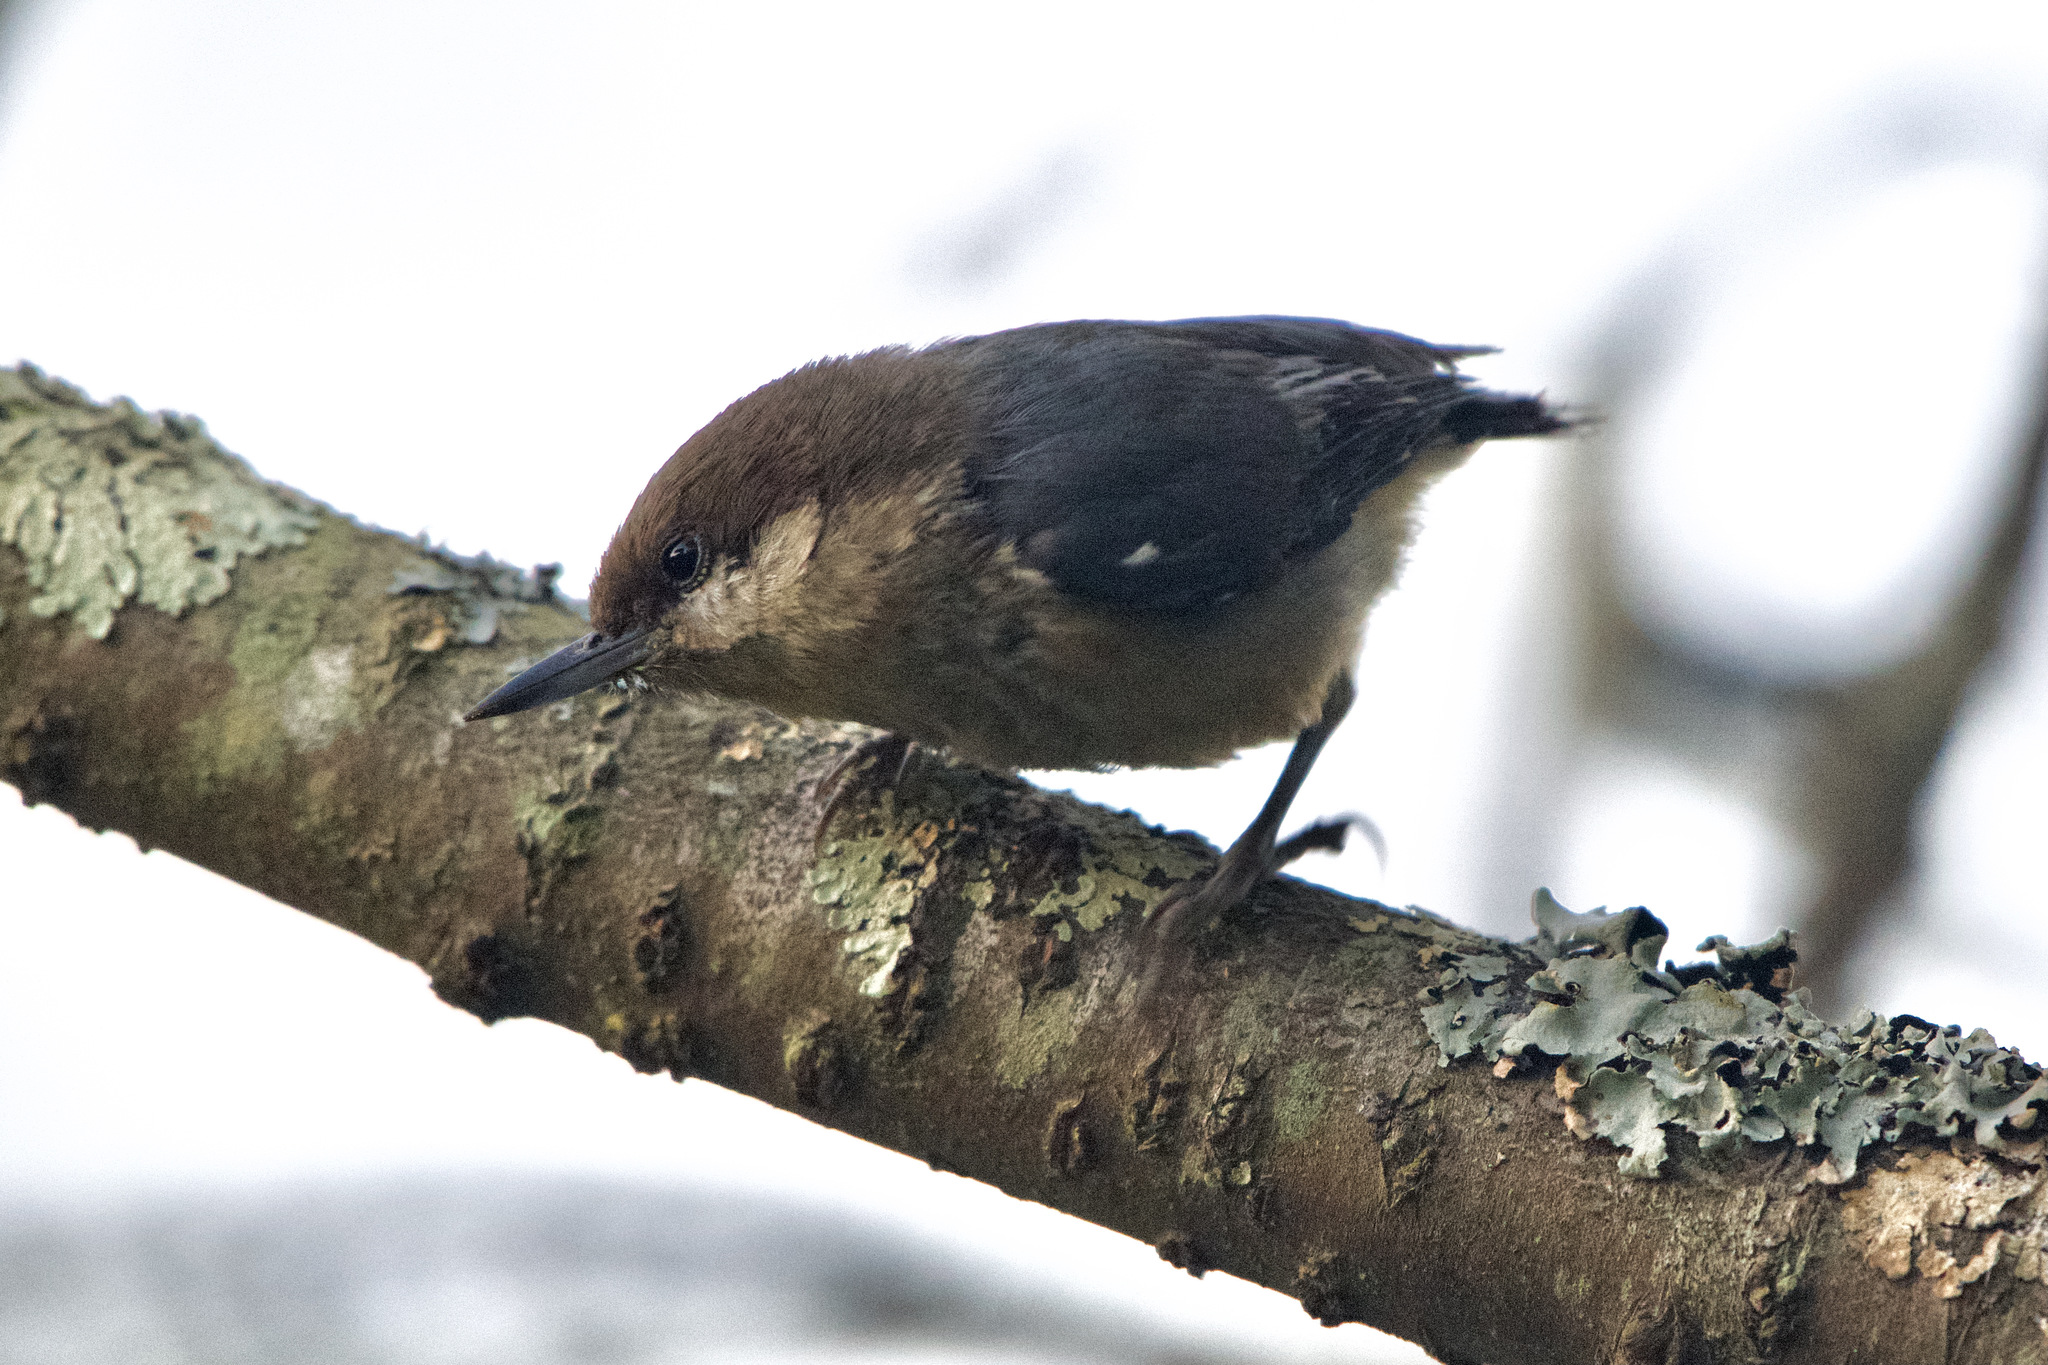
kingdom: Animalia
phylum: Chordata
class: Aves
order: Passeriformes
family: Sittidae
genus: Sitta
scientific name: Sitta pygmaea
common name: Pygmy nuthatch
